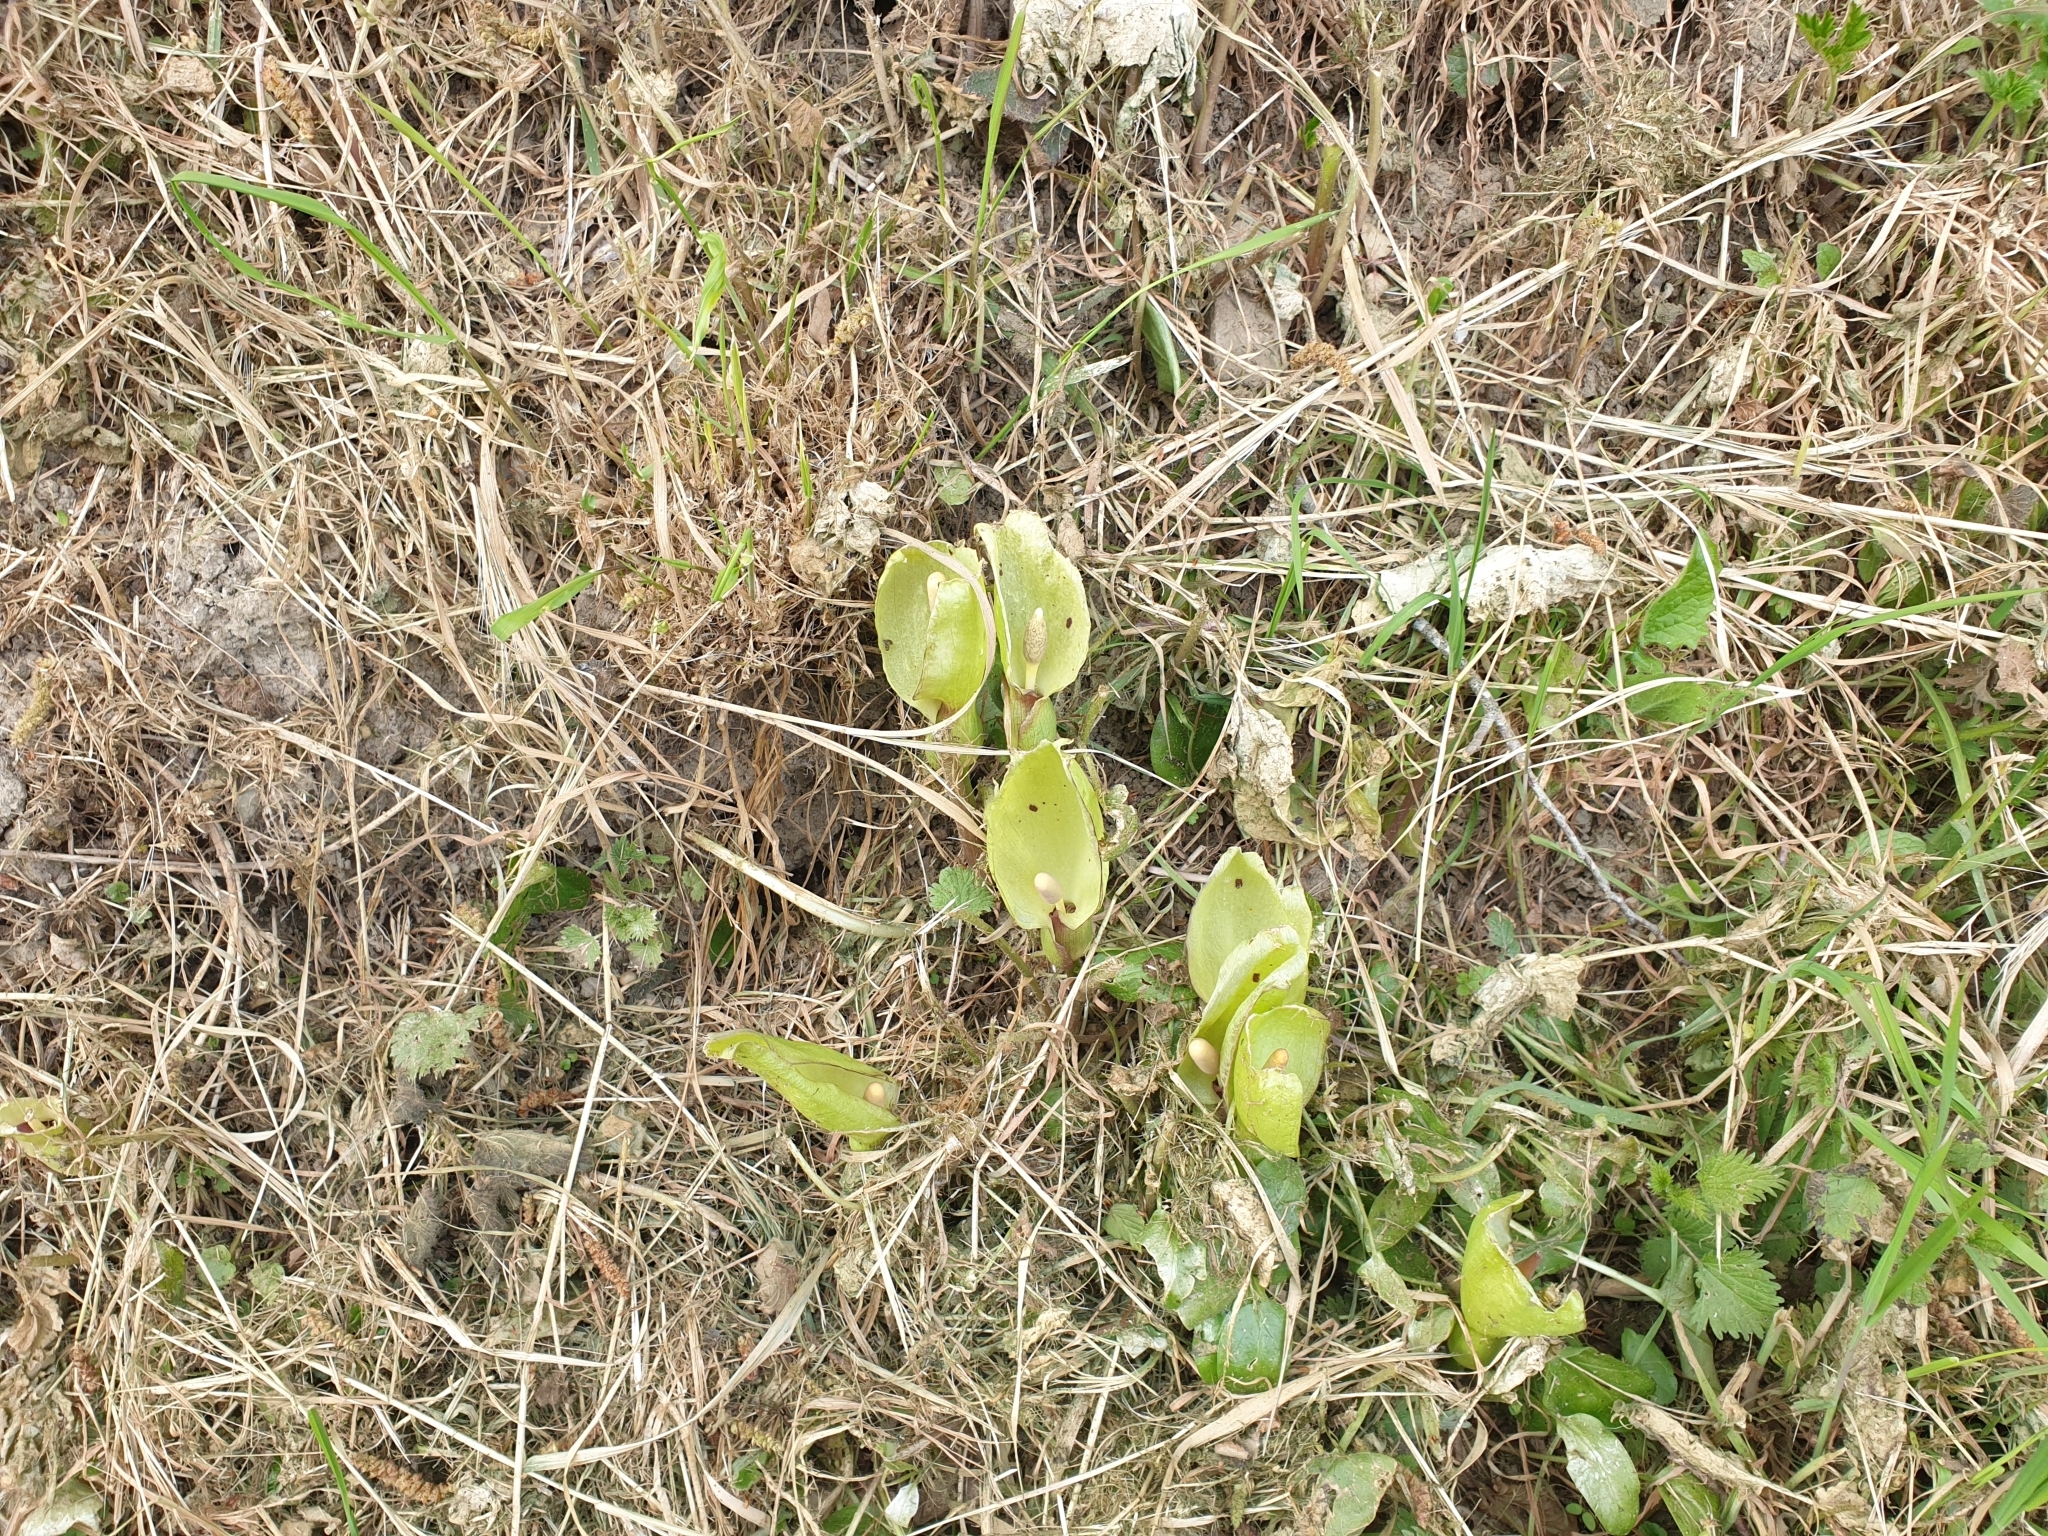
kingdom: Plantae
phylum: Tracheophyta
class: Liliopsida
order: Alismatales
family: Araceae
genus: Arum
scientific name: Arum italicum
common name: Italian lords-and-ladies
